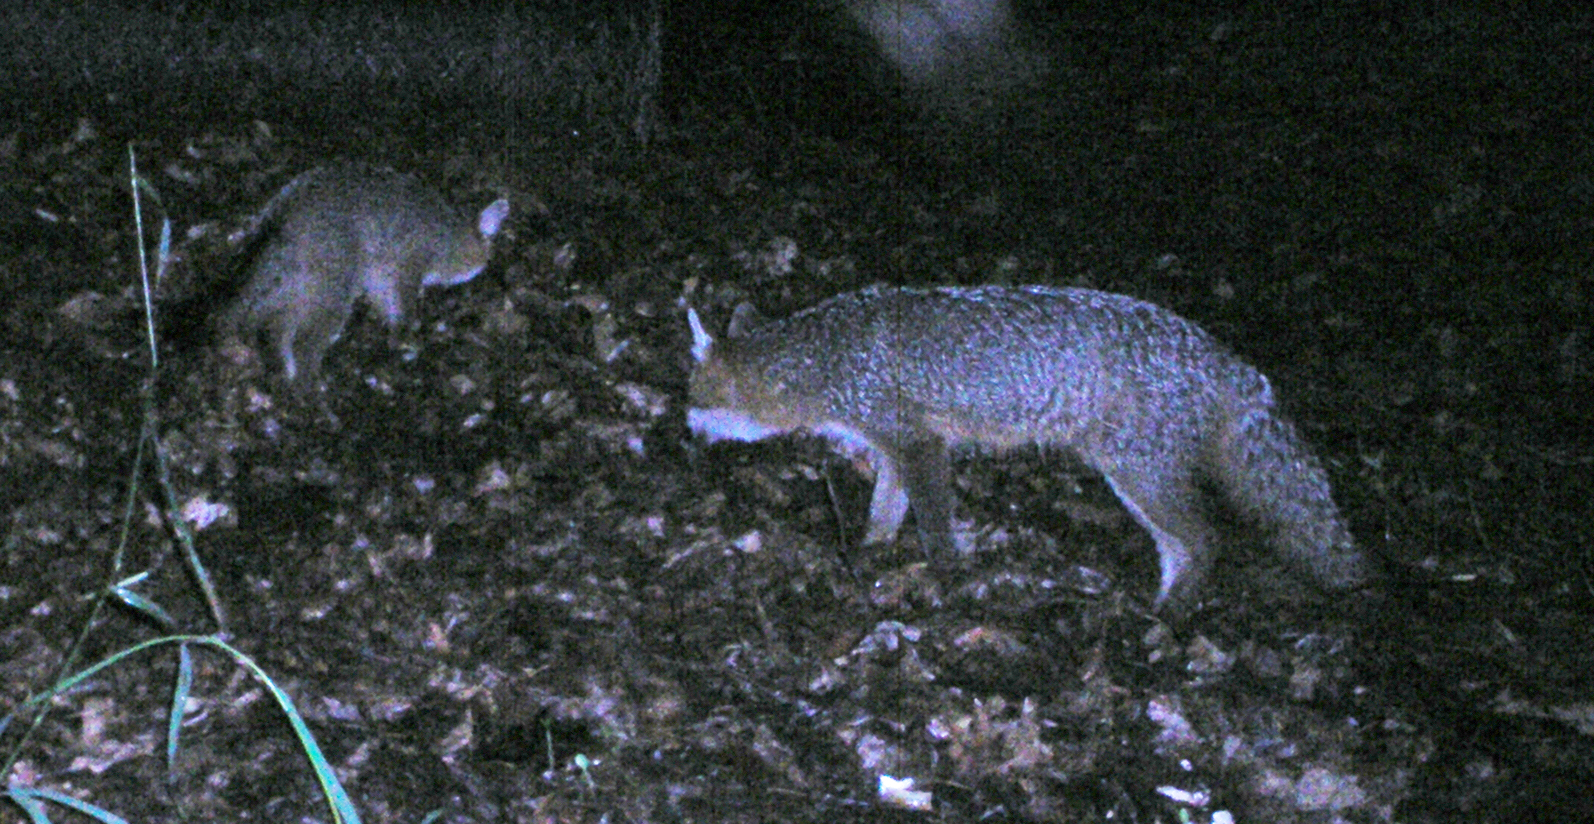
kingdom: Animalia
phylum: Chordata
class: Mammalia
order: Carnivora
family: Canidae
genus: Urocyon
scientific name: Urocyon cinereoargenteus
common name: Gray fox
